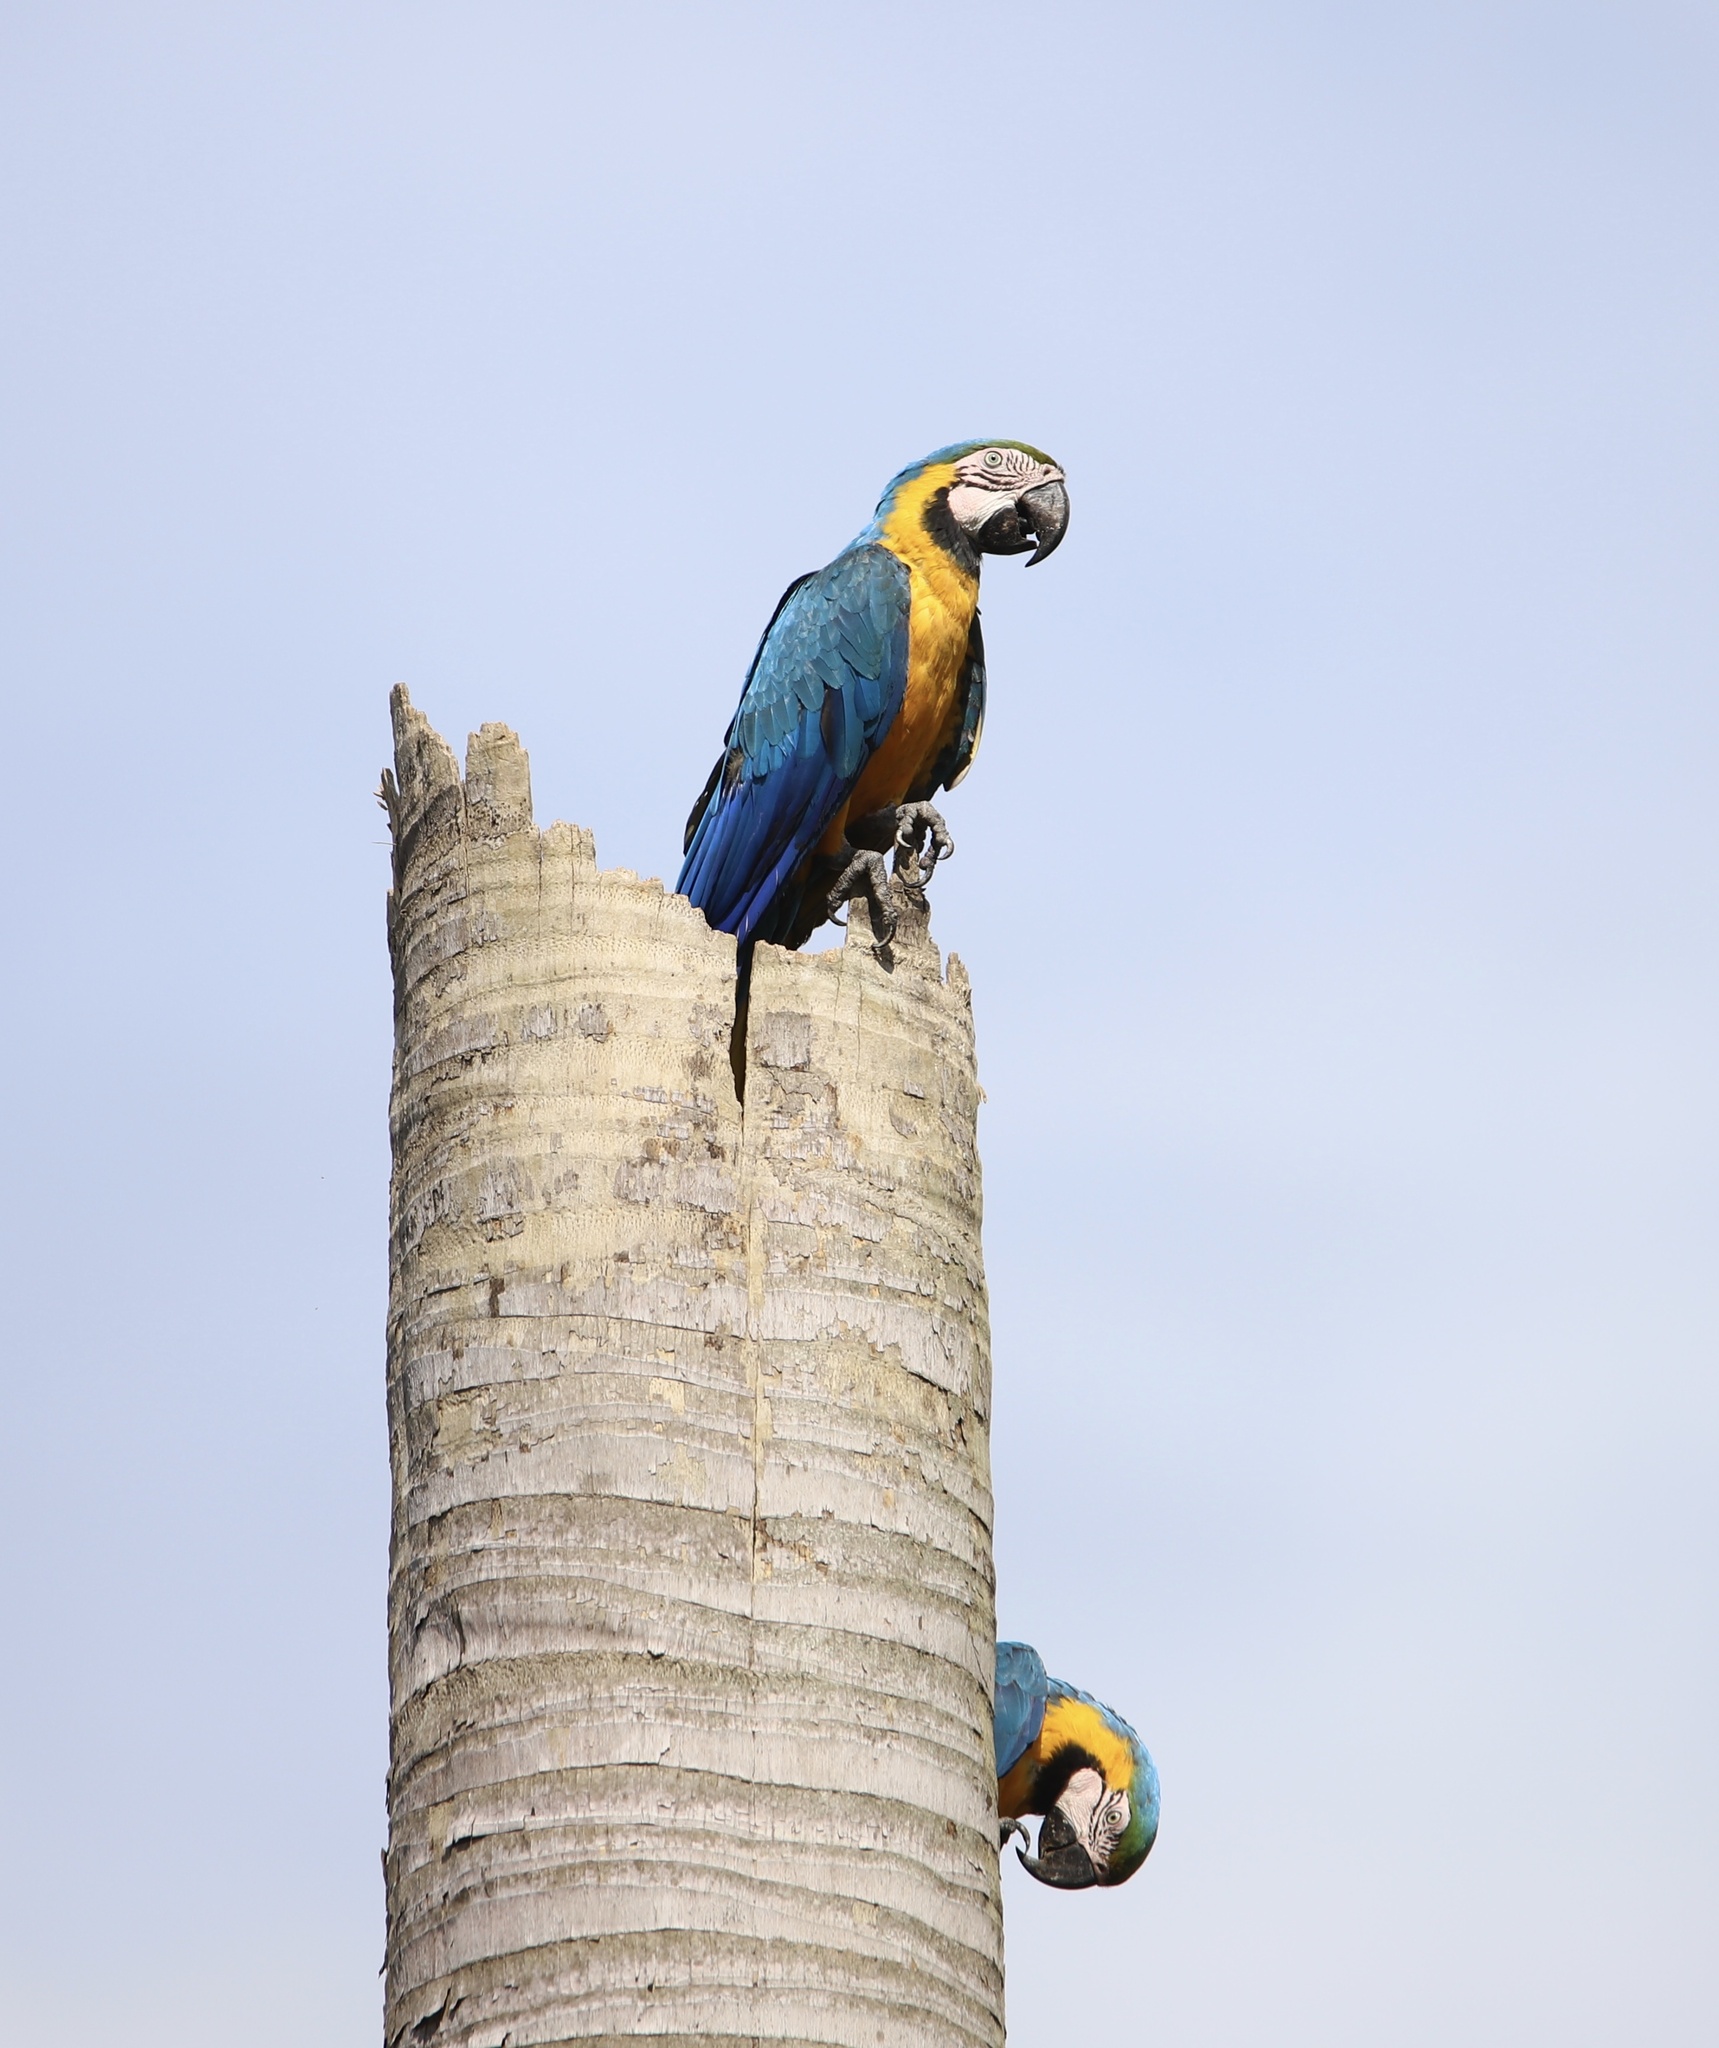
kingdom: Animalia
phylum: Chordata
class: Aves
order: Psittaciformes
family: Psittacidae
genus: Ara
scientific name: Ara ararauna
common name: Blue-and-yellow macaw
